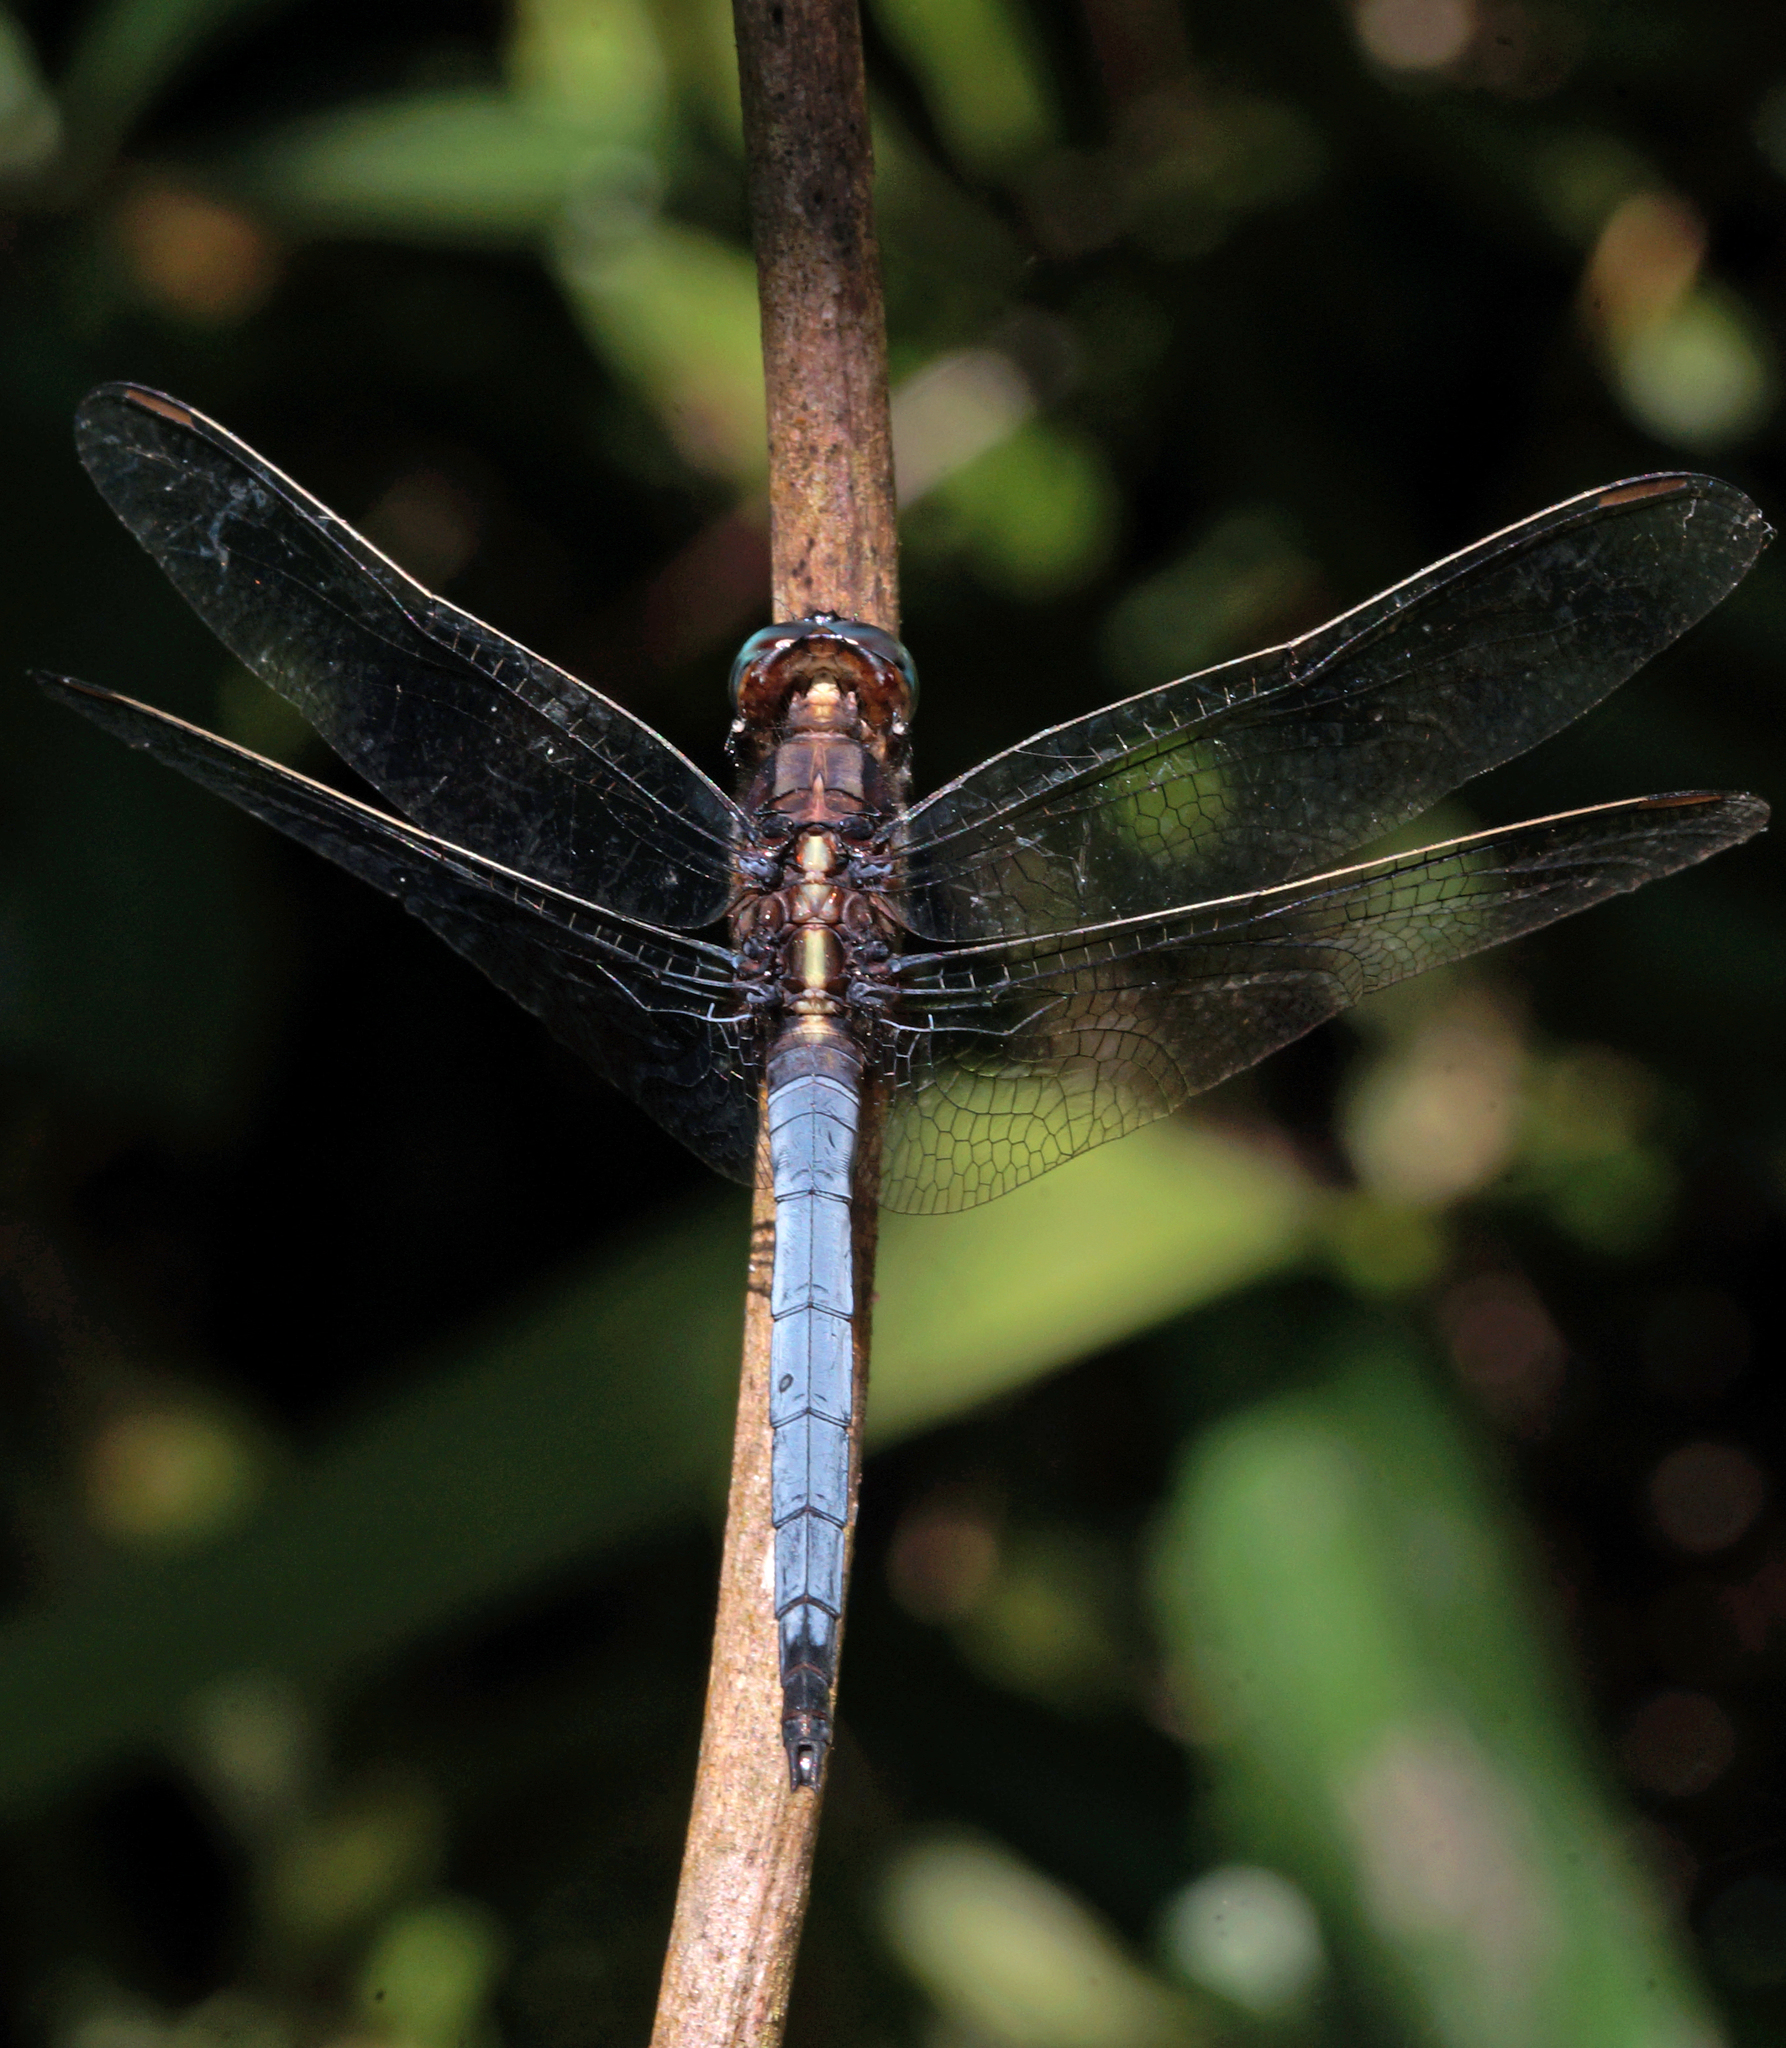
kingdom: Animalia
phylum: Arthropoda
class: Insecta
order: Odonata
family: Libellulidae
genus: Orthetrum
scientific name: Orthetrum glaucum
